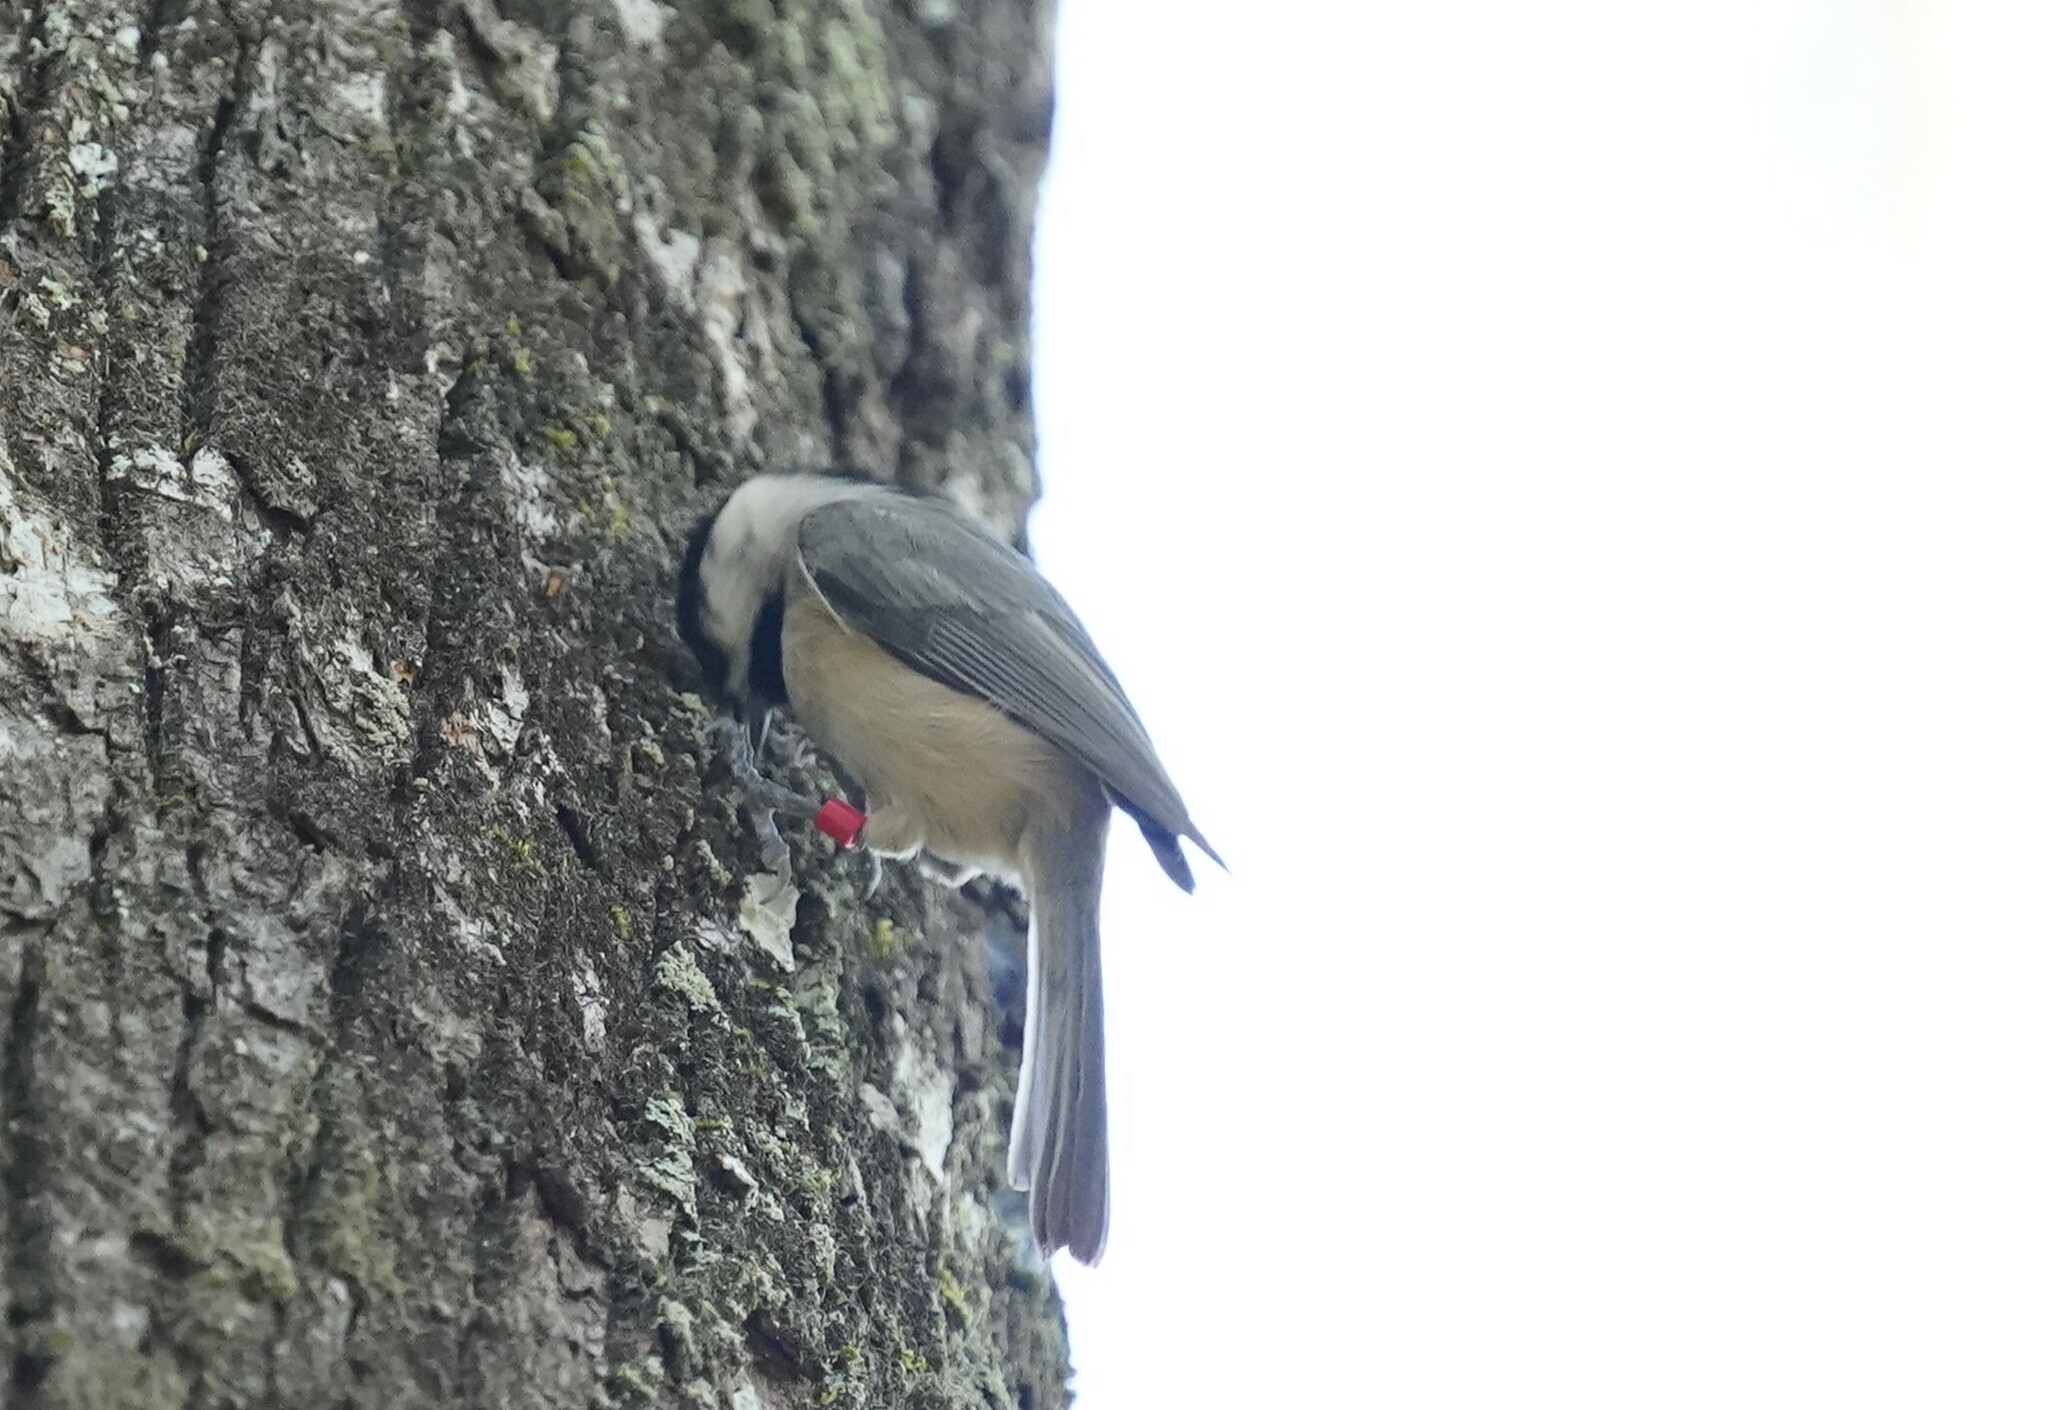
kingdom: Animalia
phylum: Chordata
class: Aves
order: Passeriformes
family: Paridae
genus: Poecile
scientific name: Poecile carolinensis
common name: Carolina chickadee
